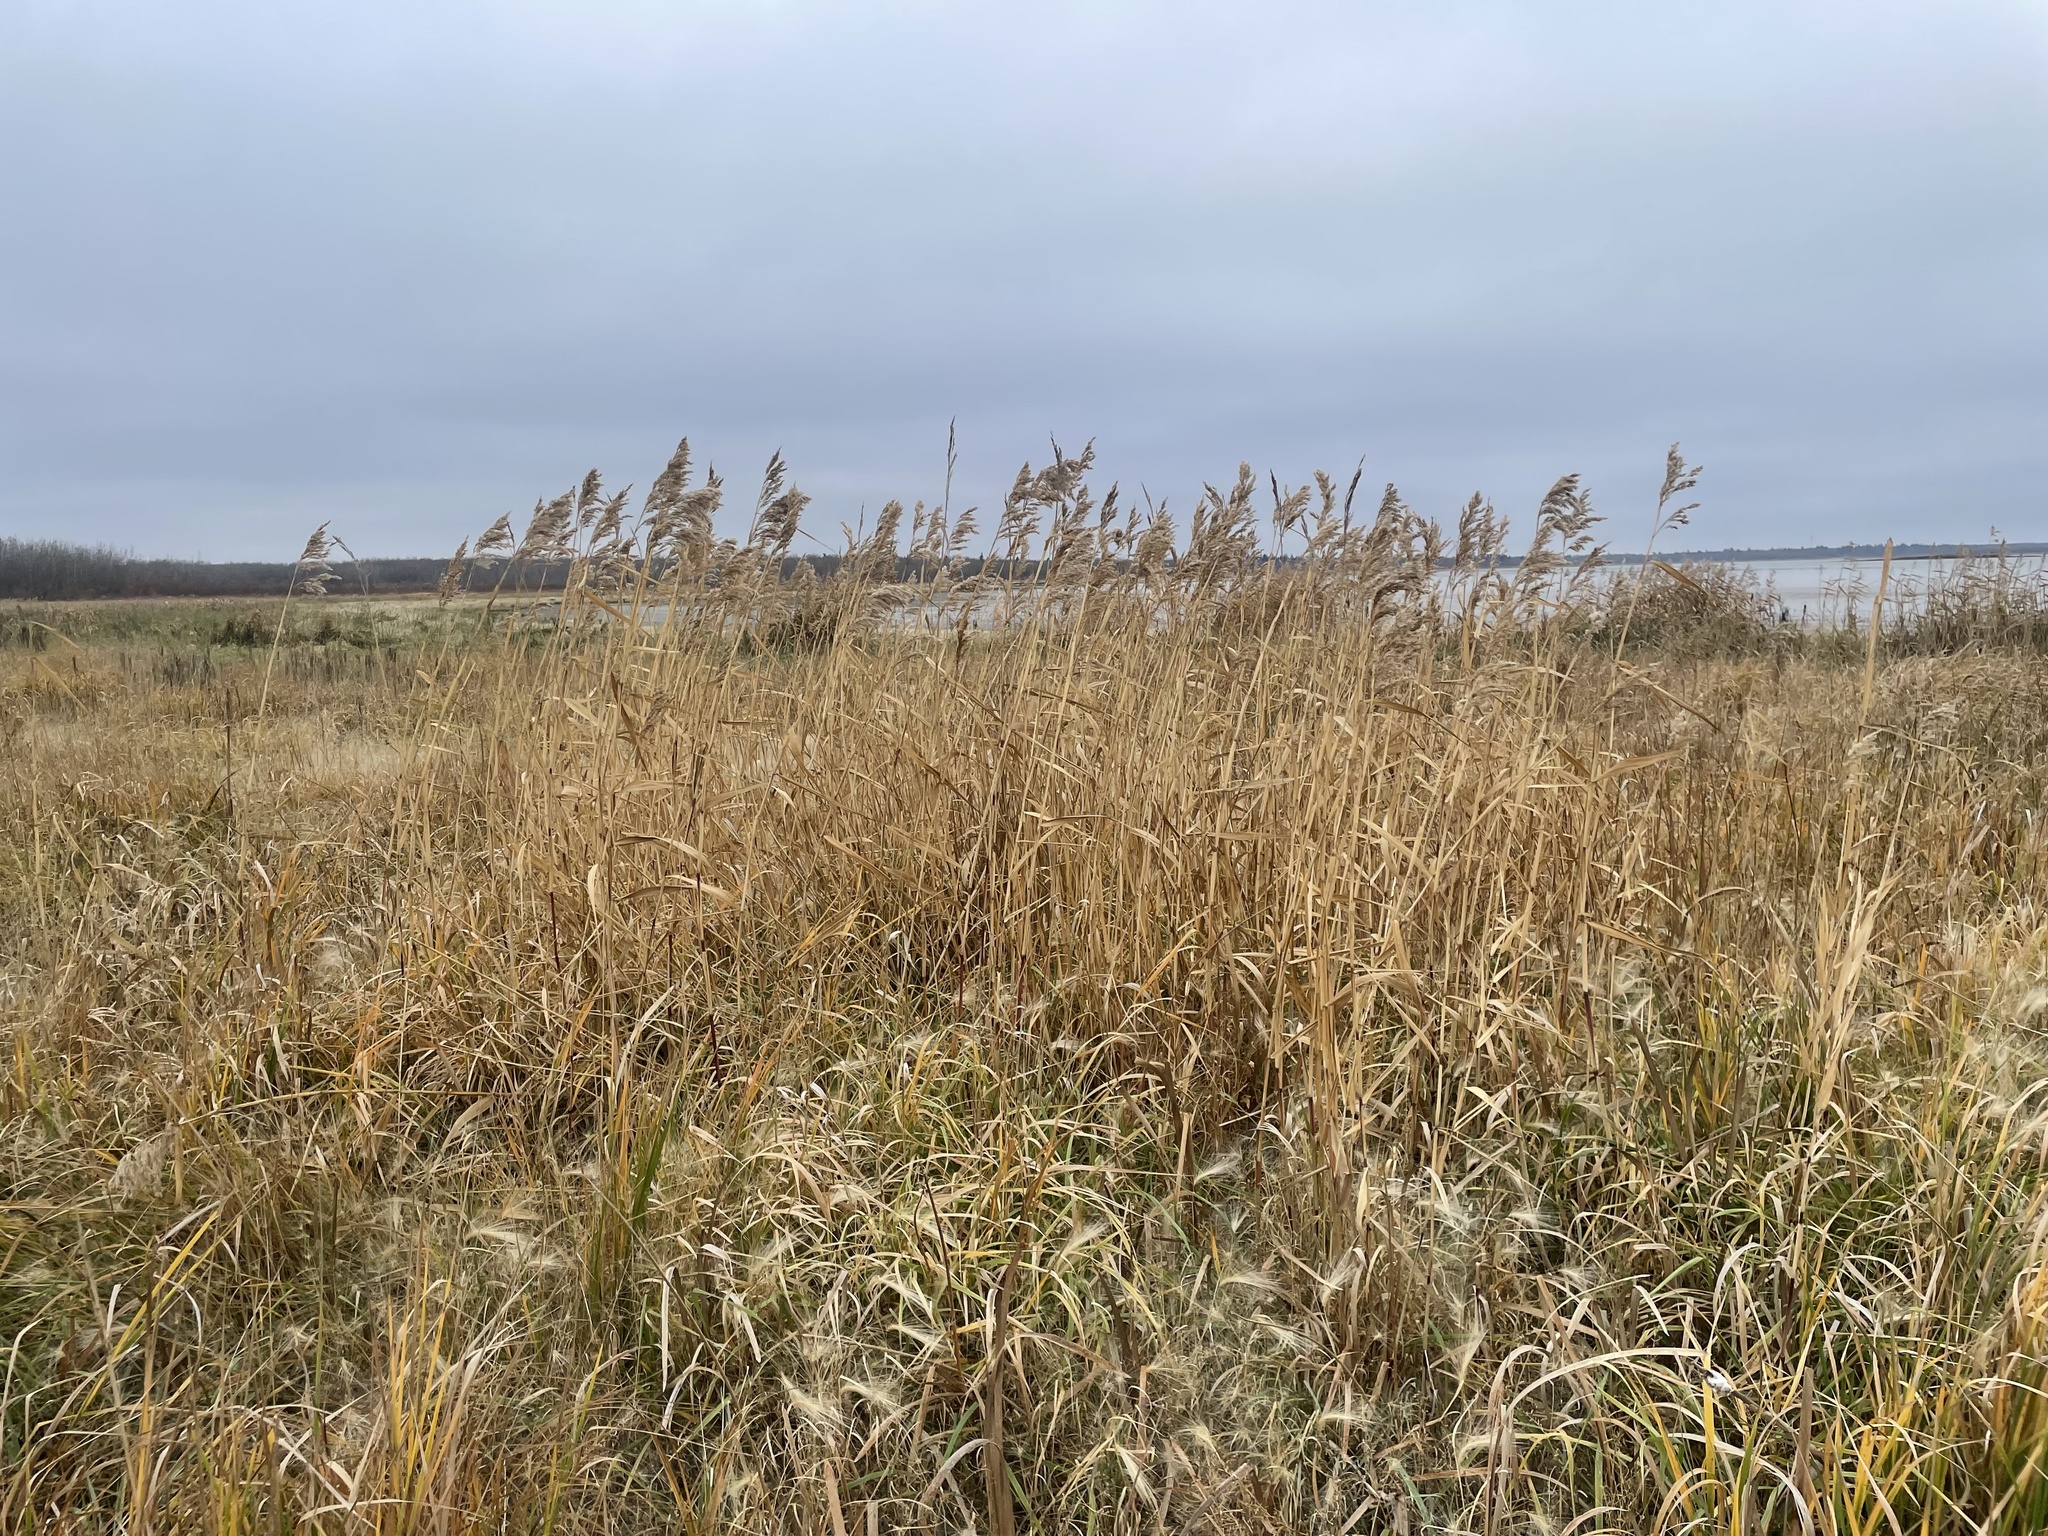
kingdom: Plantae
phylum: Tracheophyta
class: Liliopsida
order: Poales
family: Poaceae
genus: Phragmites
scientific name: Phragmites australis
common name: Common reed
